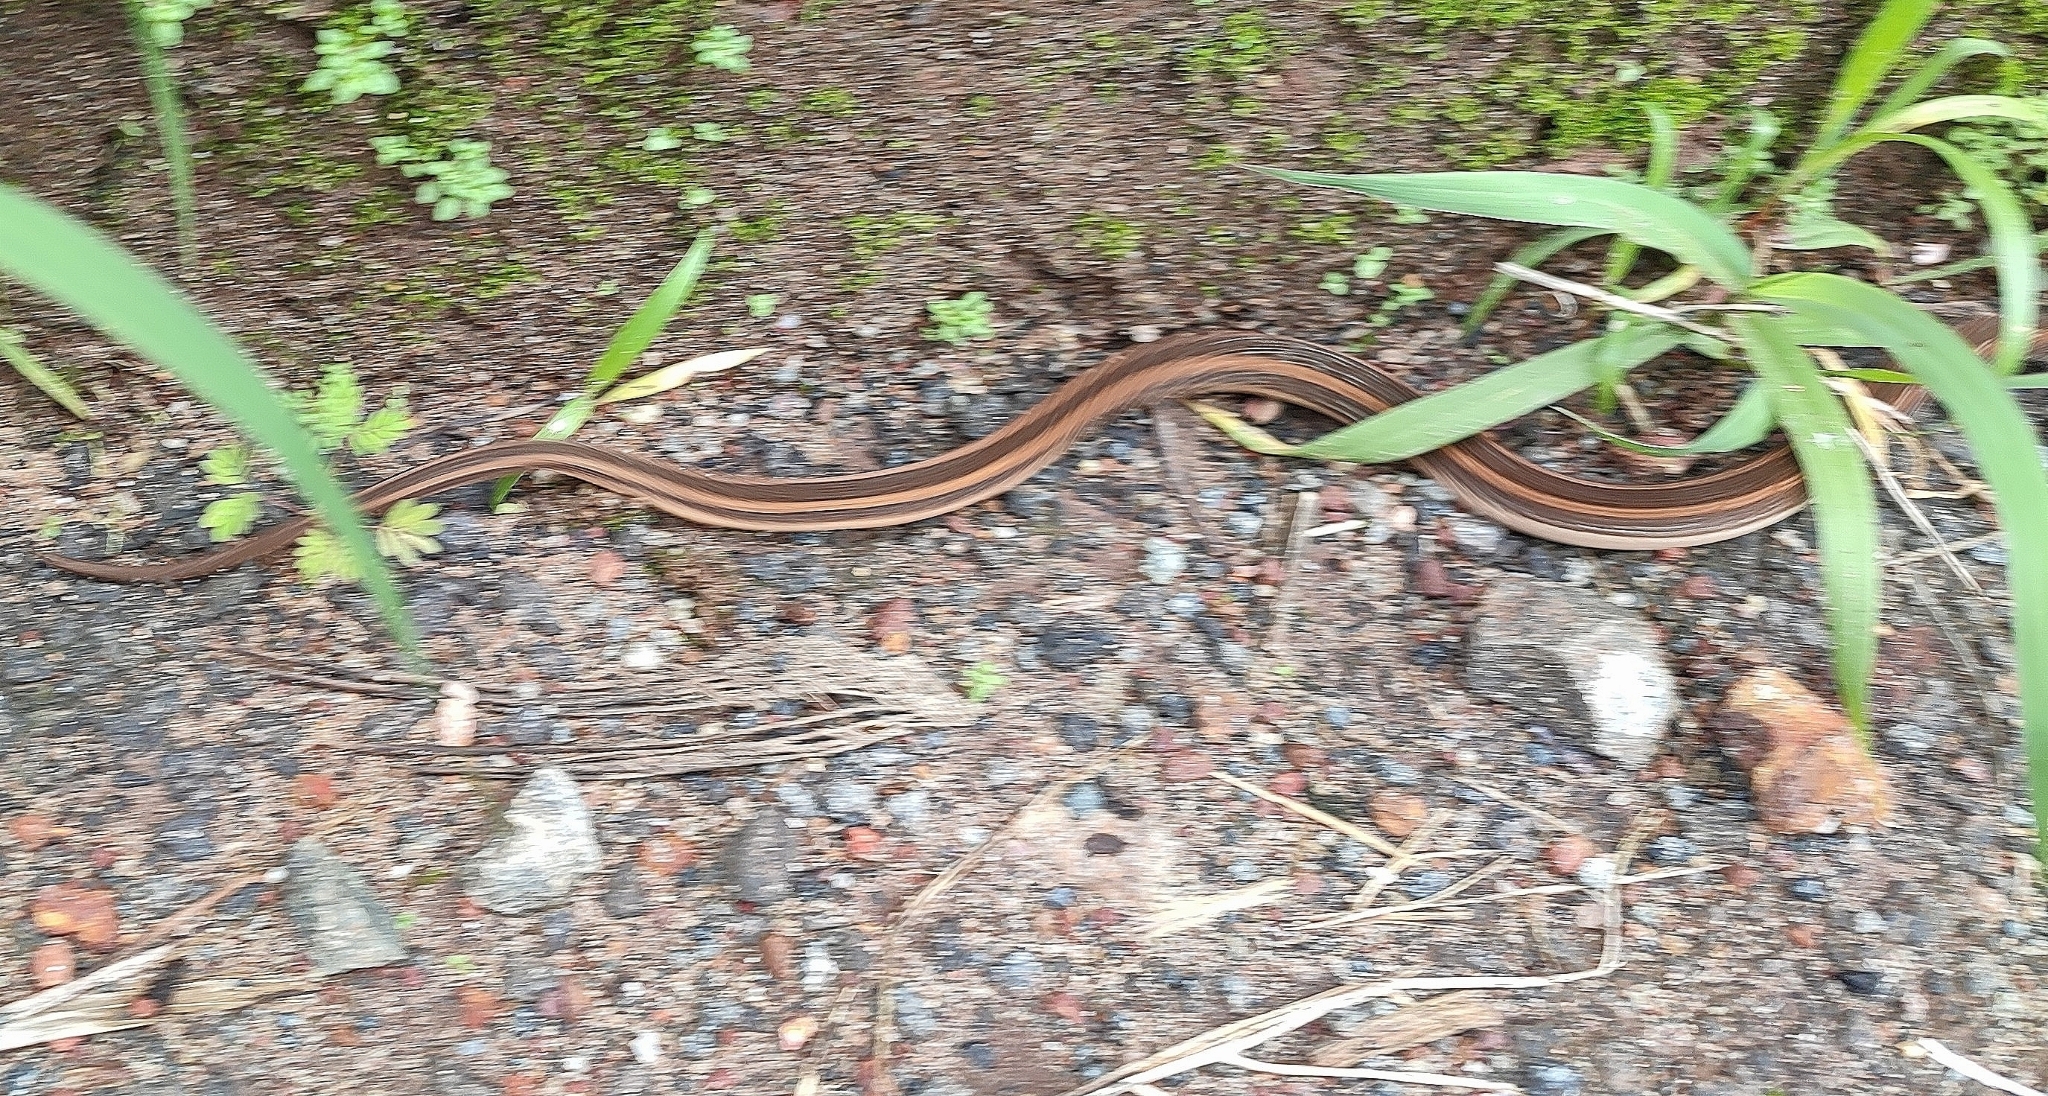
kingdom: Animalia
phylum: Chordata
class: Squamata
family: Colubridae
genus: Amphiesma
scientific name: Amphiesma stolatum
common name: Buff striped keelback
